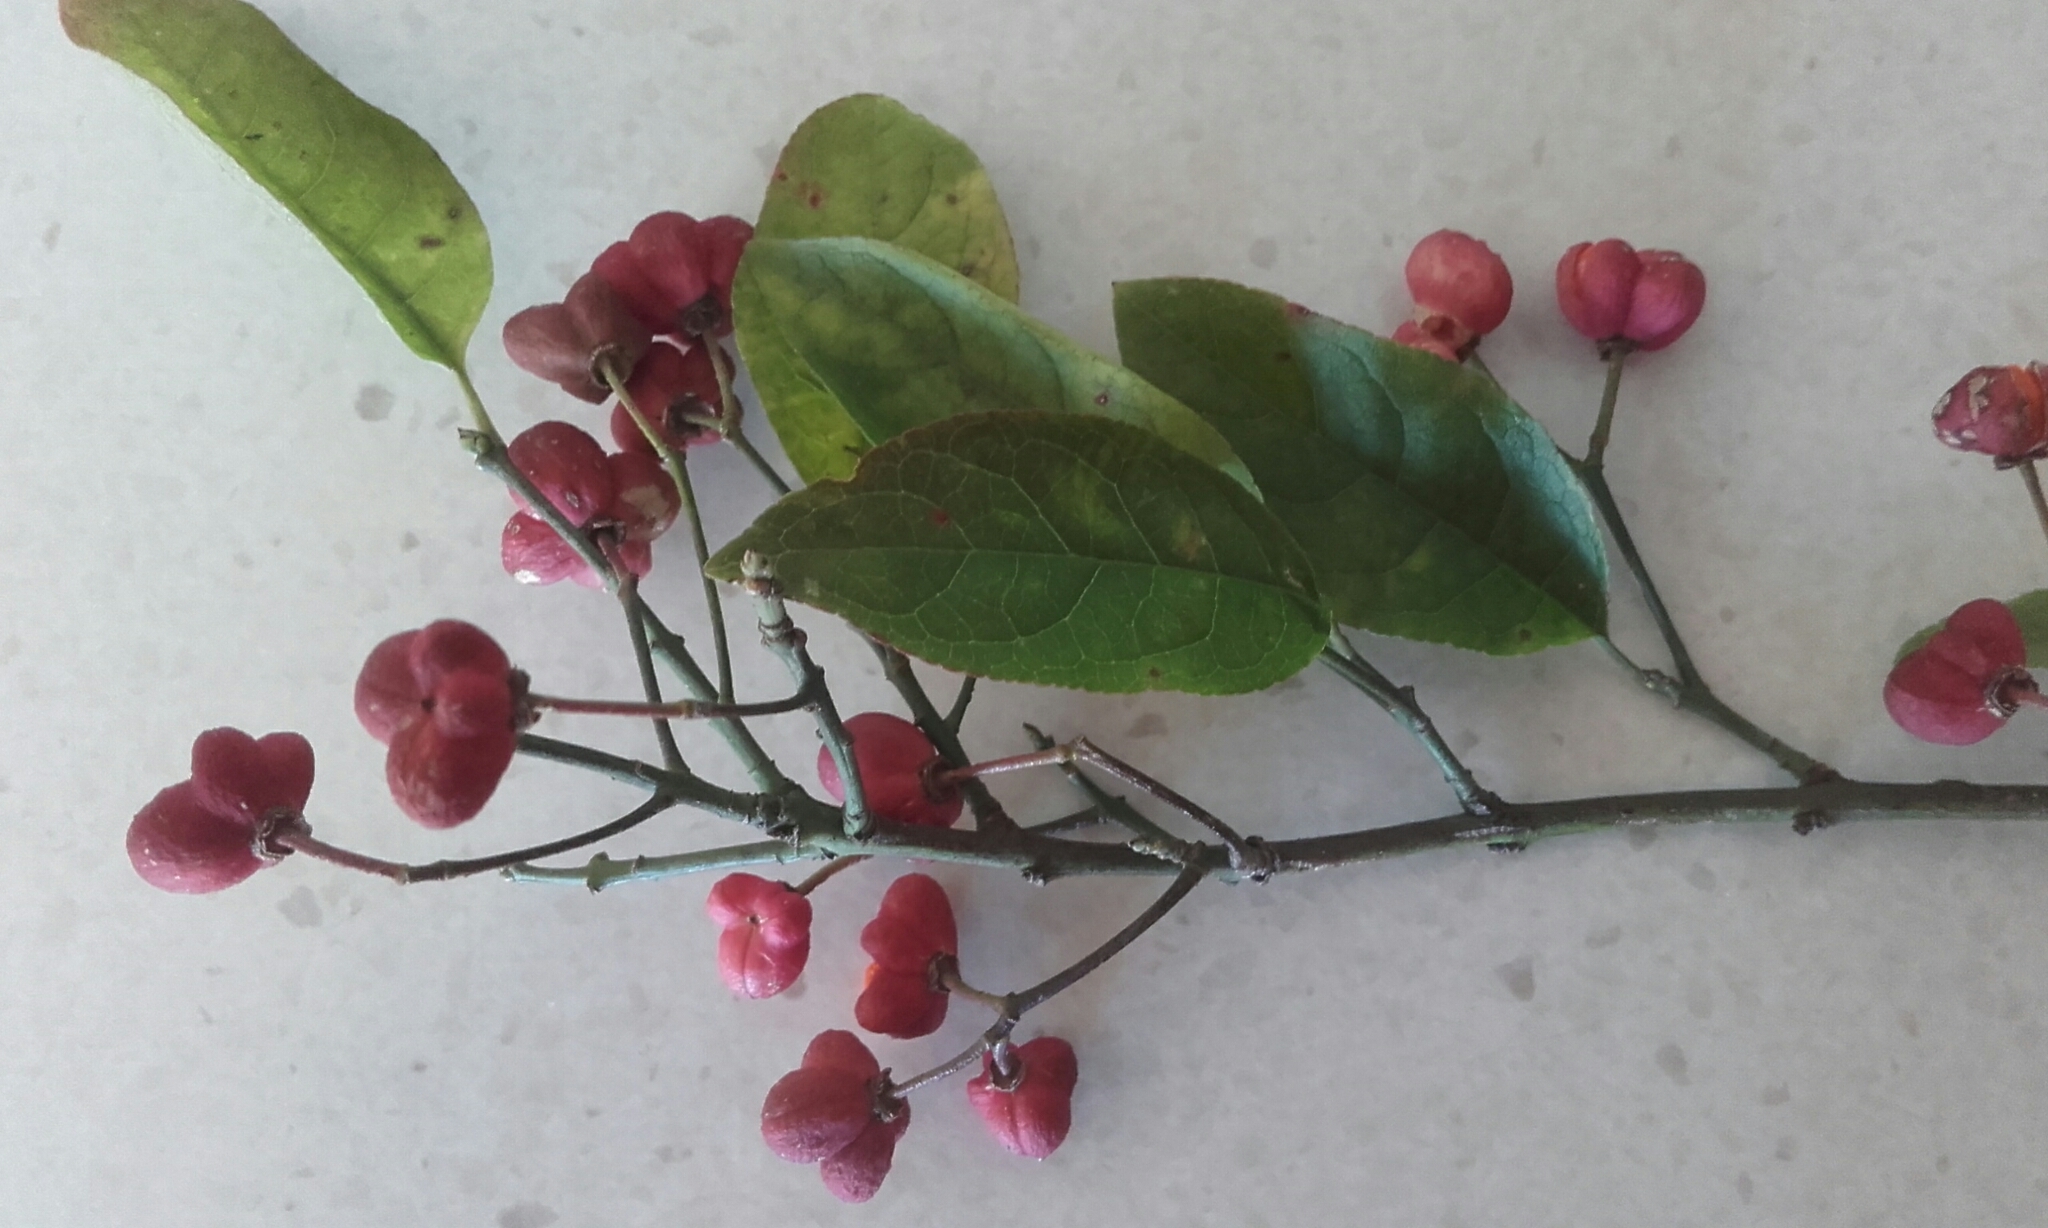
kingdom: Plantae
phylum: Tracheophyta
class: Magnoliopsida
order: Celastrales
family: Celastraceae
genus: Euonymus
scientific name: Euonymus europaeus
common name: Spindle
